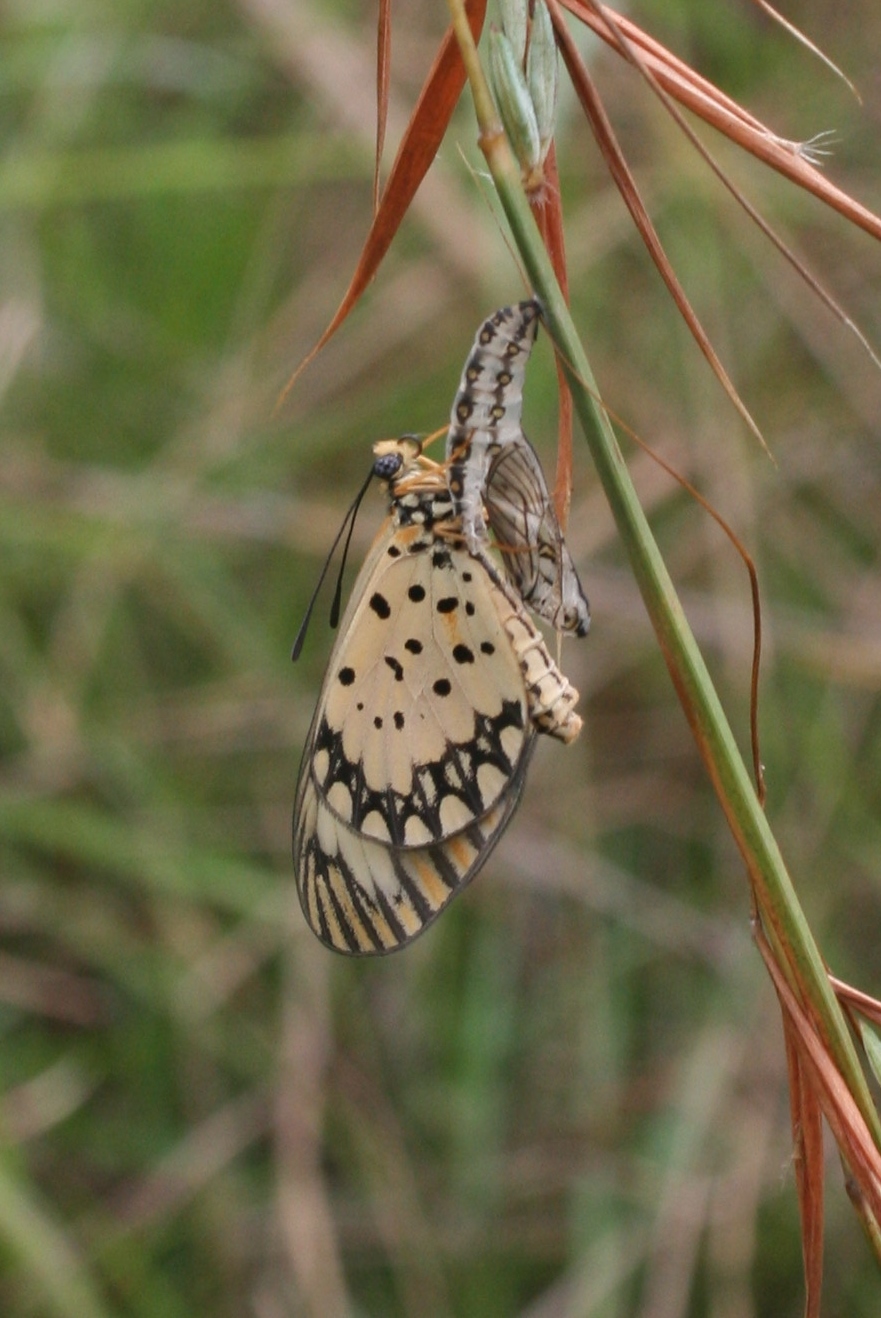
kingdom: Animalia
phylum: Arthropoda
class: Insecta
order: Lepidoptera
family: Nymphalidae
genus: Acraea
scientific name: Acraea Telchinia serena
